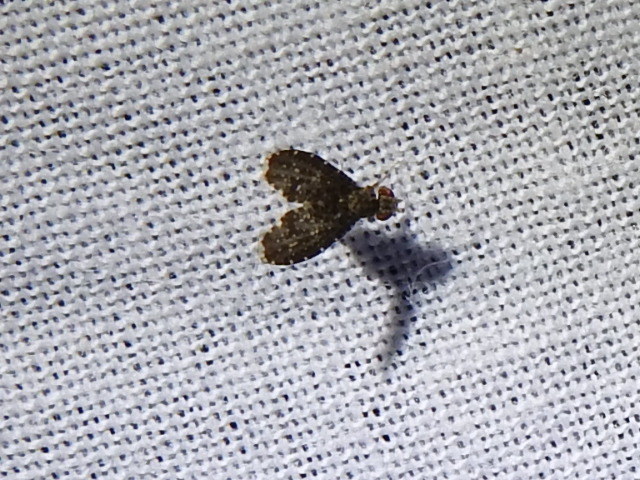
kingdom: Animalia
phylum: Arthropoda
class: Insecta
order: Diptera
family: Lauxaniidae
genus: Trypetisoma
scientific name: Trypetisoma sticticum
